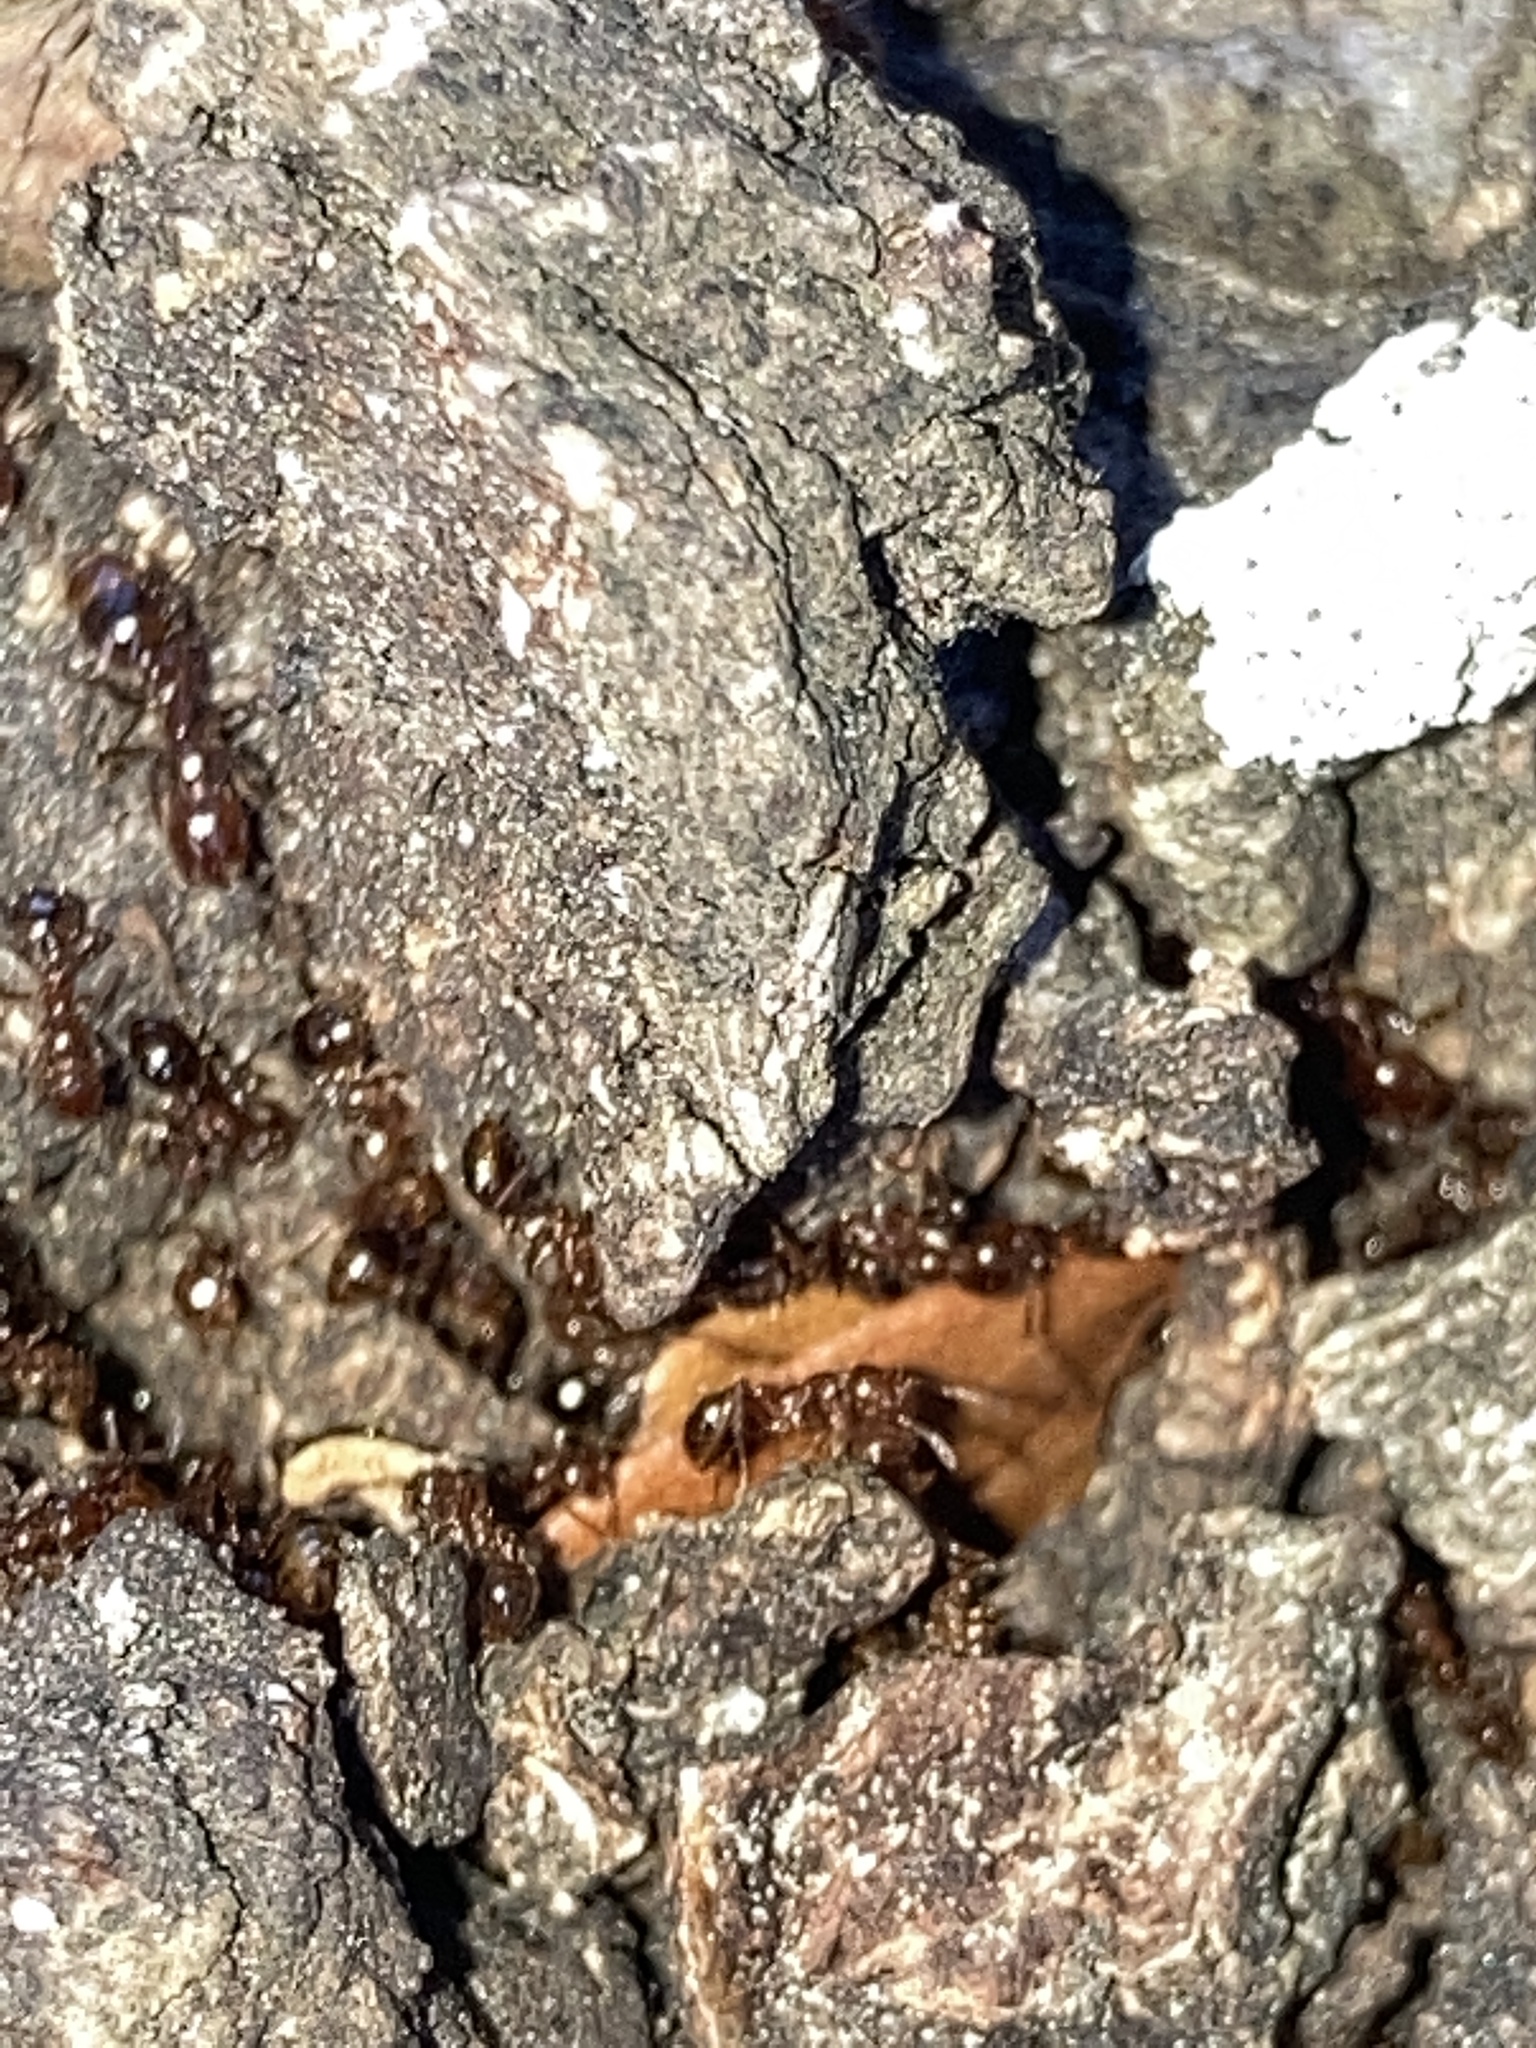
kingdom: Animalia
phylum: Arthropoda
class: Insecta
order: Hymenoptera
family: Formicidae
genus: Solenopsis
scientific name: Solenopsis invicta
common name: Red imported fire ant
